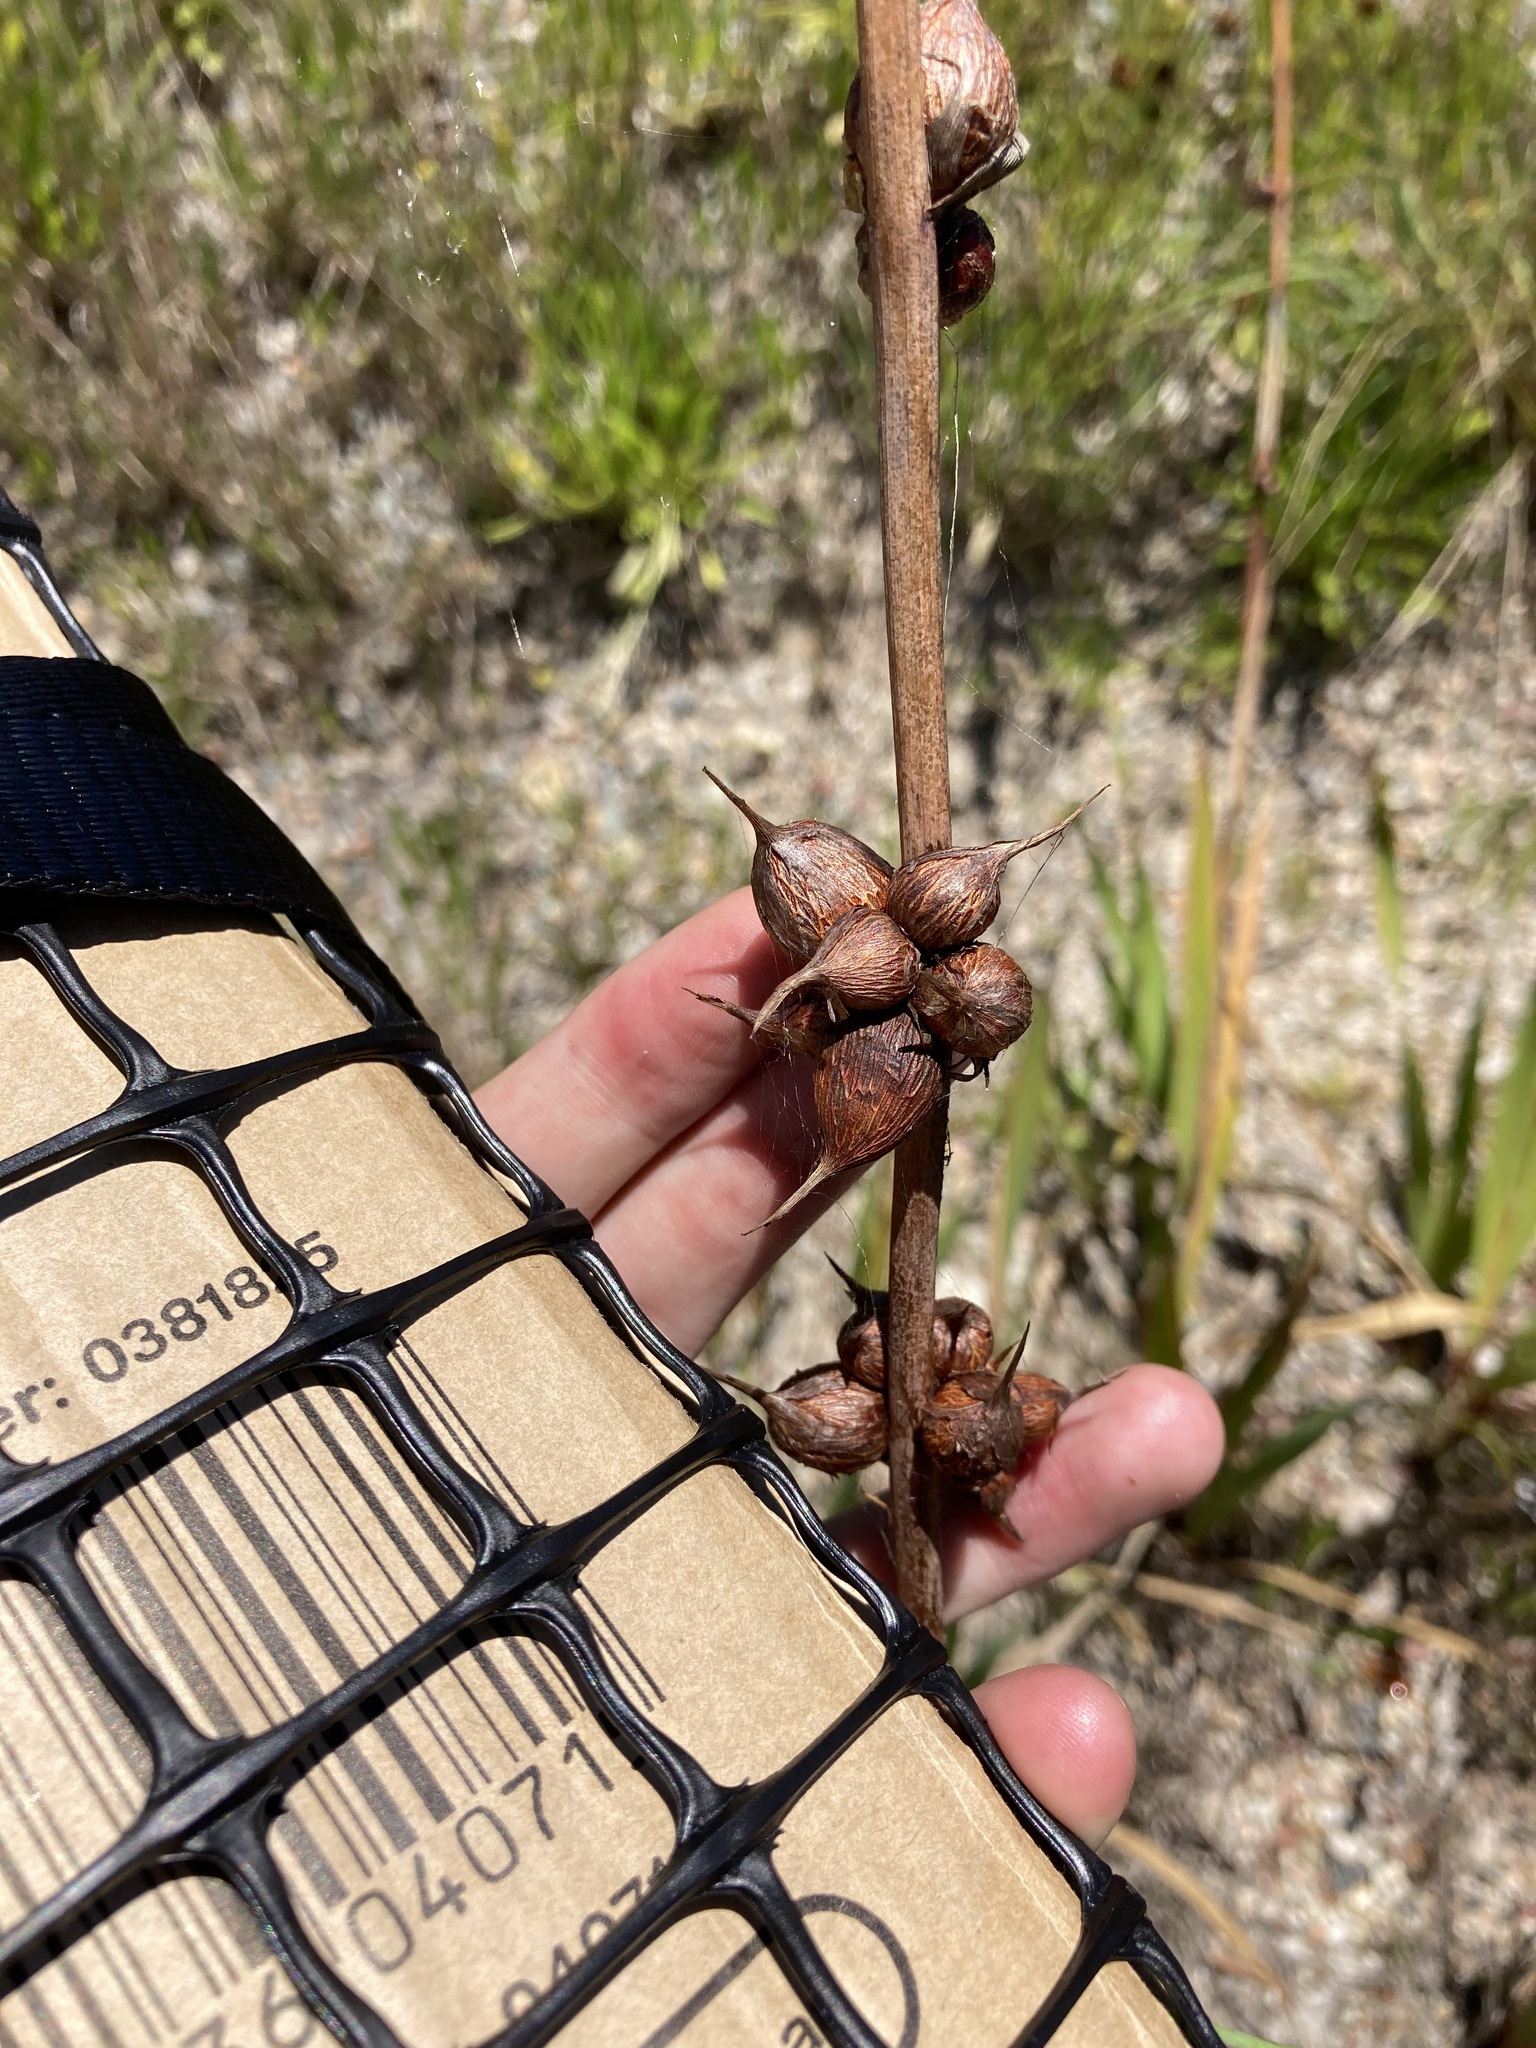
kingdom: Plantae
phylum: Tracheophyta
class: Liliopsida
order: Asparagales
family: Iridaceae
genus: Watsonia
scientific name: Watsonia meriana
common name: Bulbil bugle-lily
